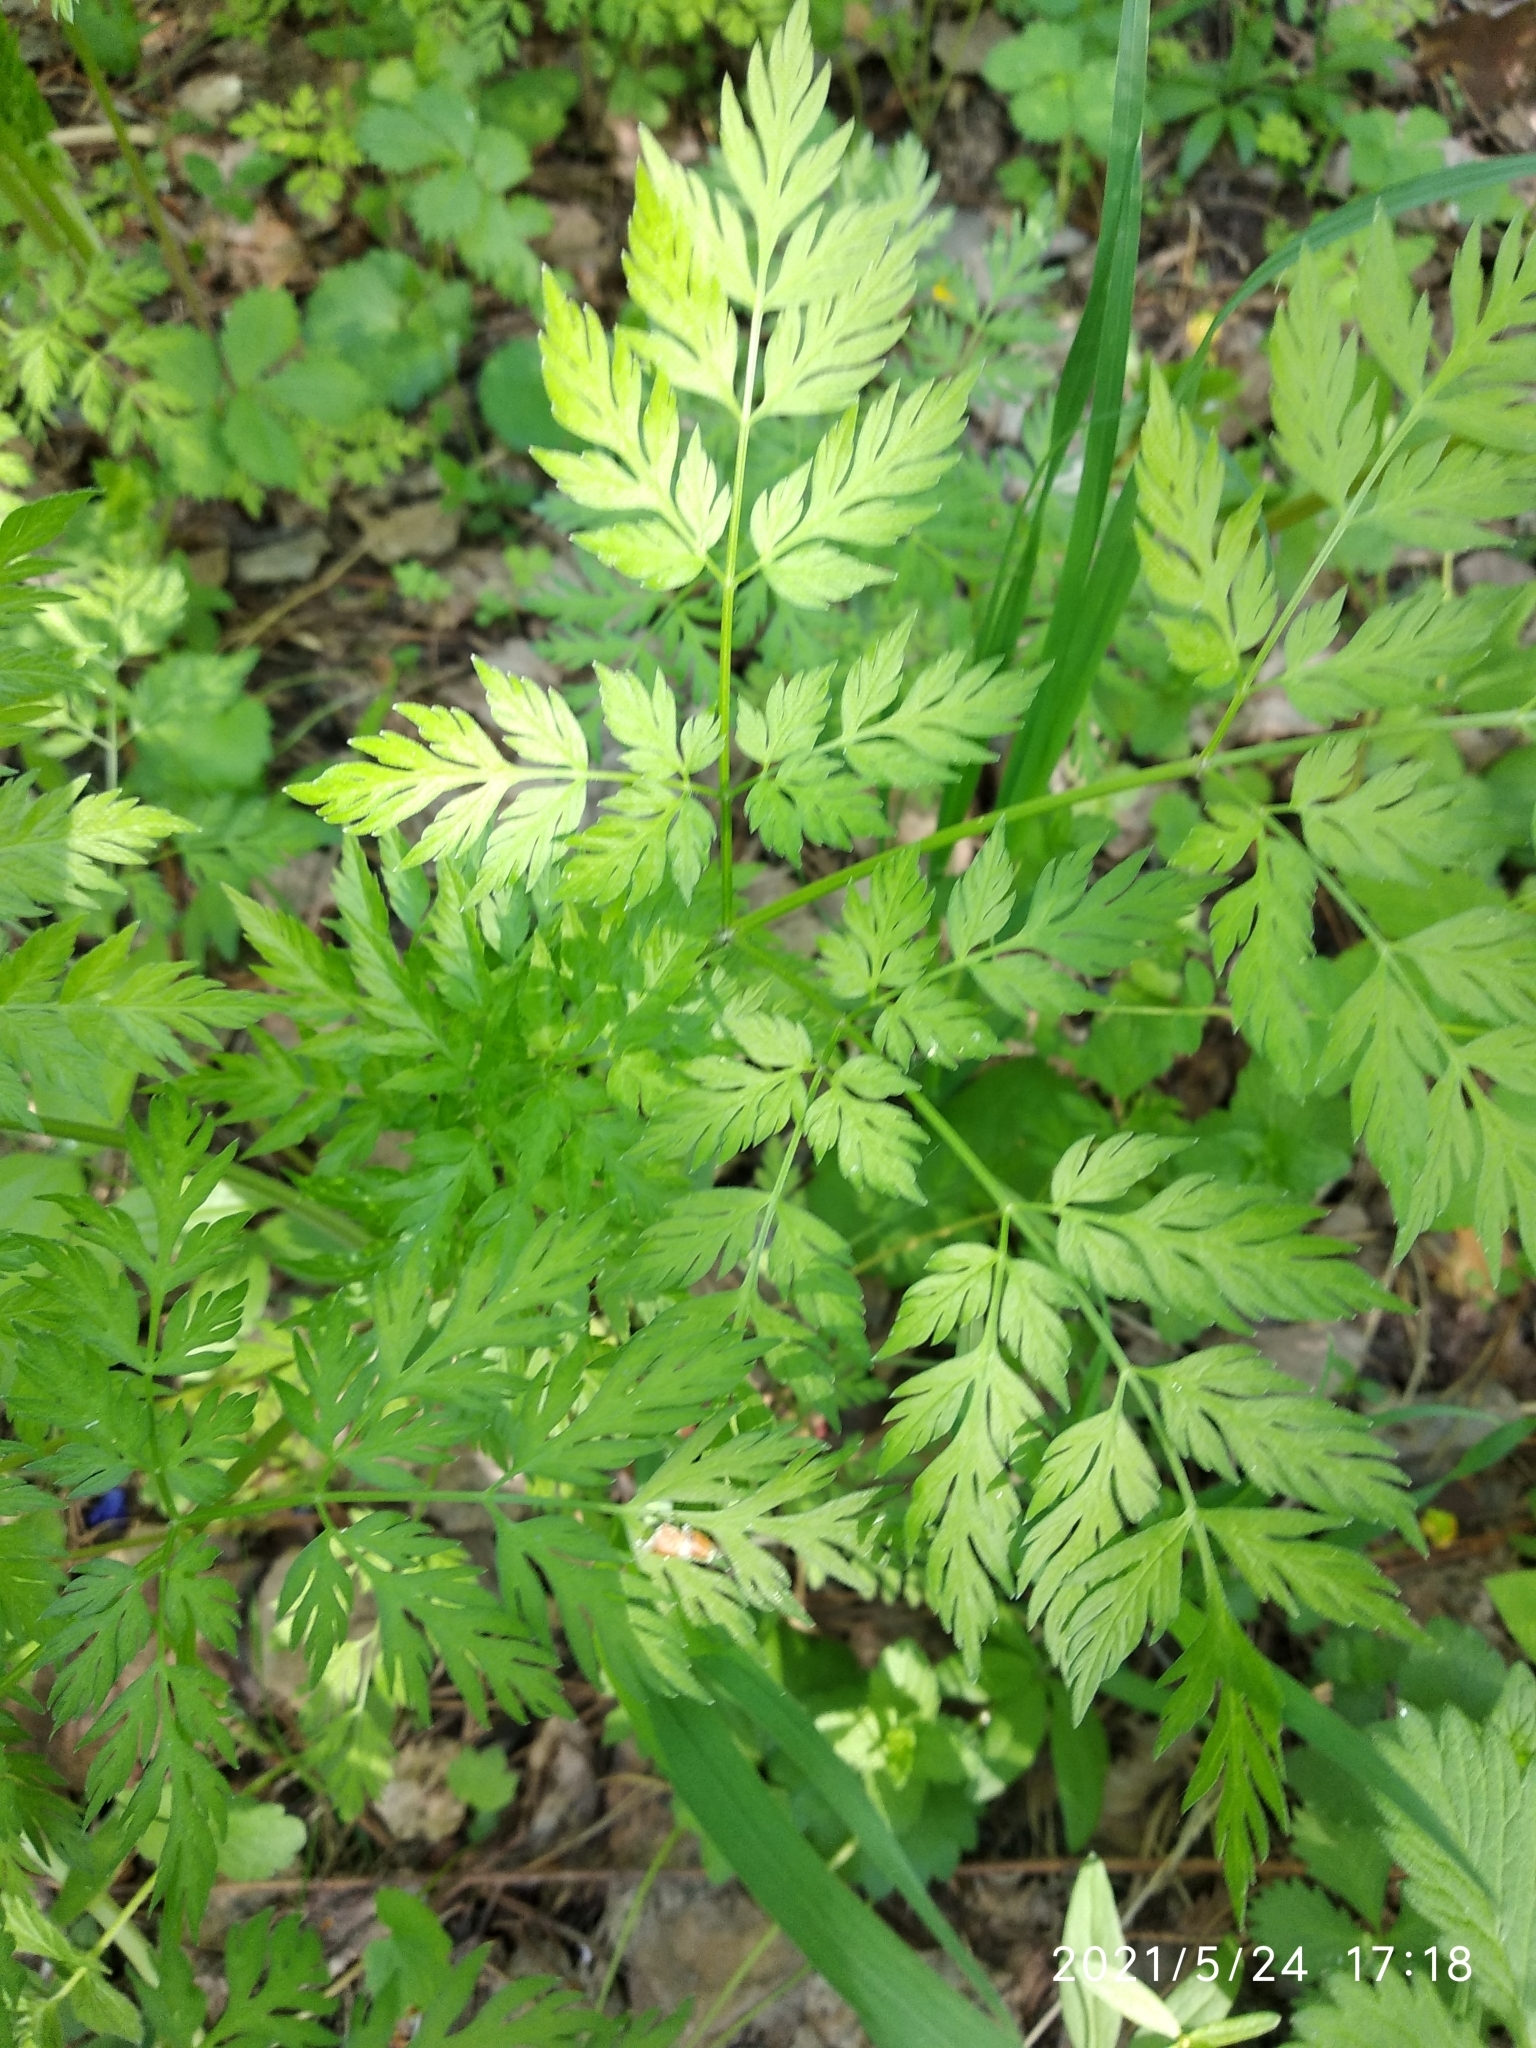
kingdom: Plantae
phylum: Tracheophyta
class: Magnoliopsida
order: Apiales
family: Apiaceae
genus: Anthriscus
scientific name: Anthriscus sylvestris
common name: Cow parsley
